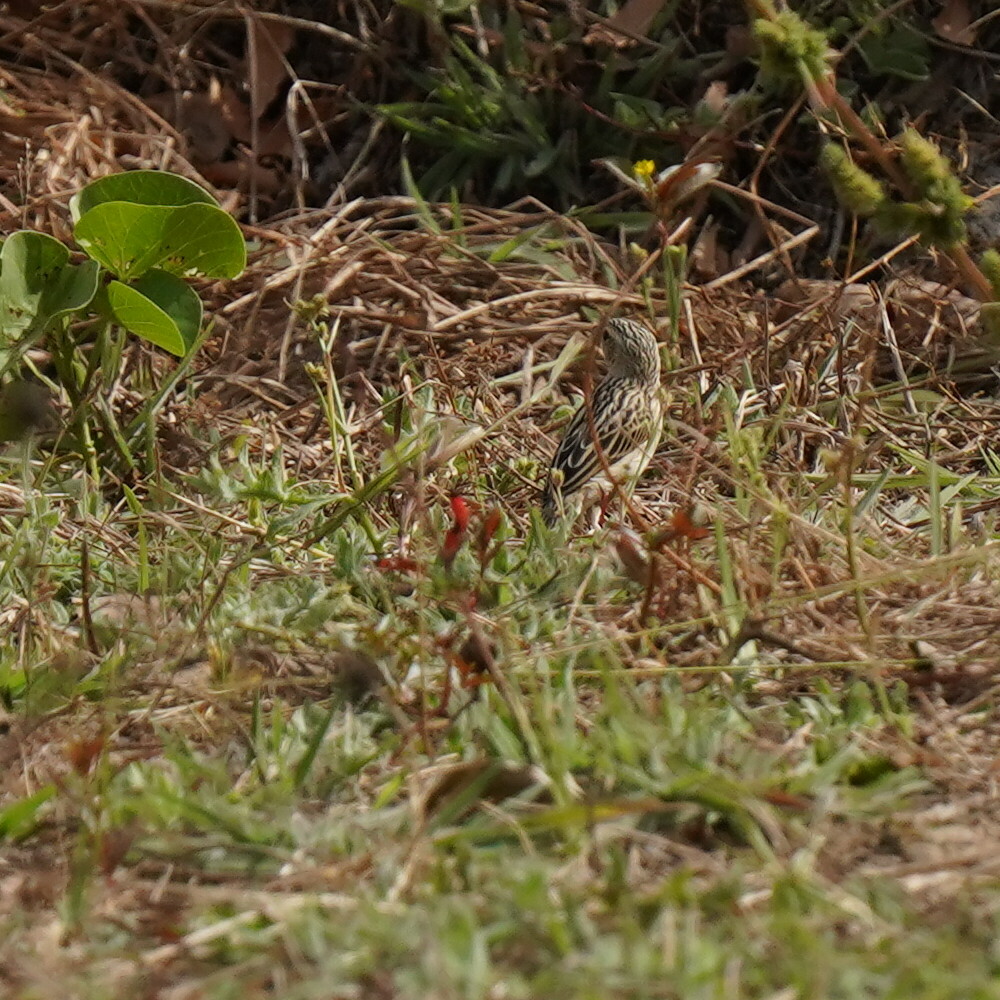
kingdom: Animalia
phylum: Chordata
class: Aves
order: Passeriformes
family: Ploceidae
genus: Quelea
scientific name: Quelea quelea
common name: Red-billed quelea
